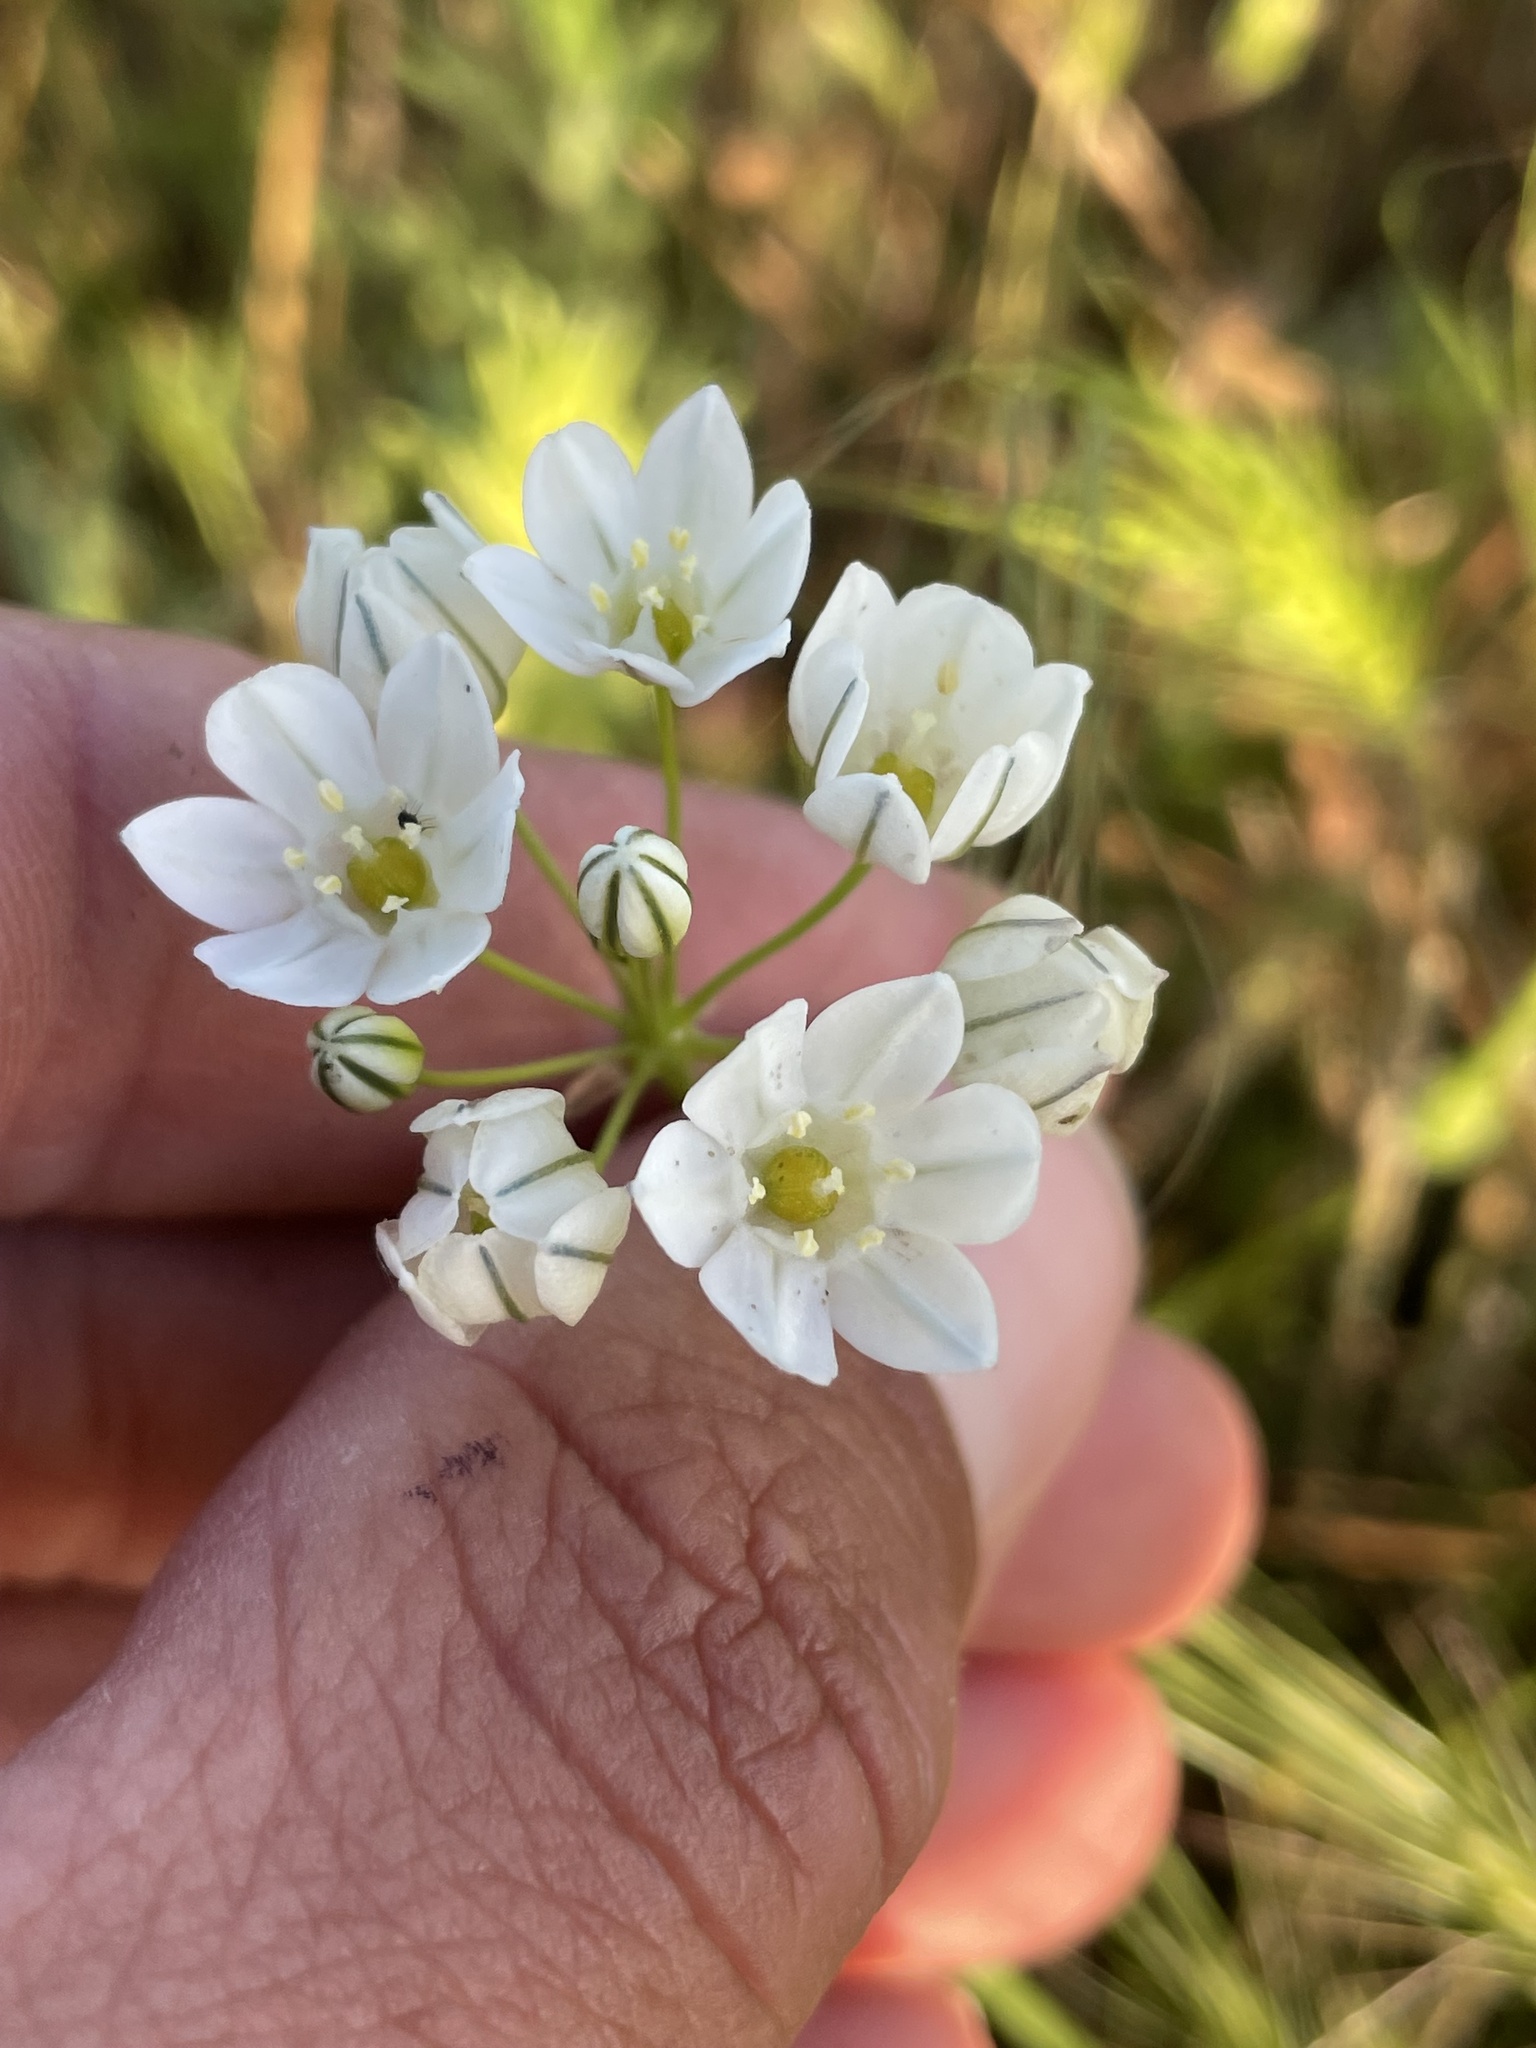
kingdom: Plantae
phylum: Tracheophyta
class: Liliopsida
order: Asparagales
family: Asparagaceae
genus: Triteleia
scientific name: Triteleia hyacinthina
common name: White brodiaea
